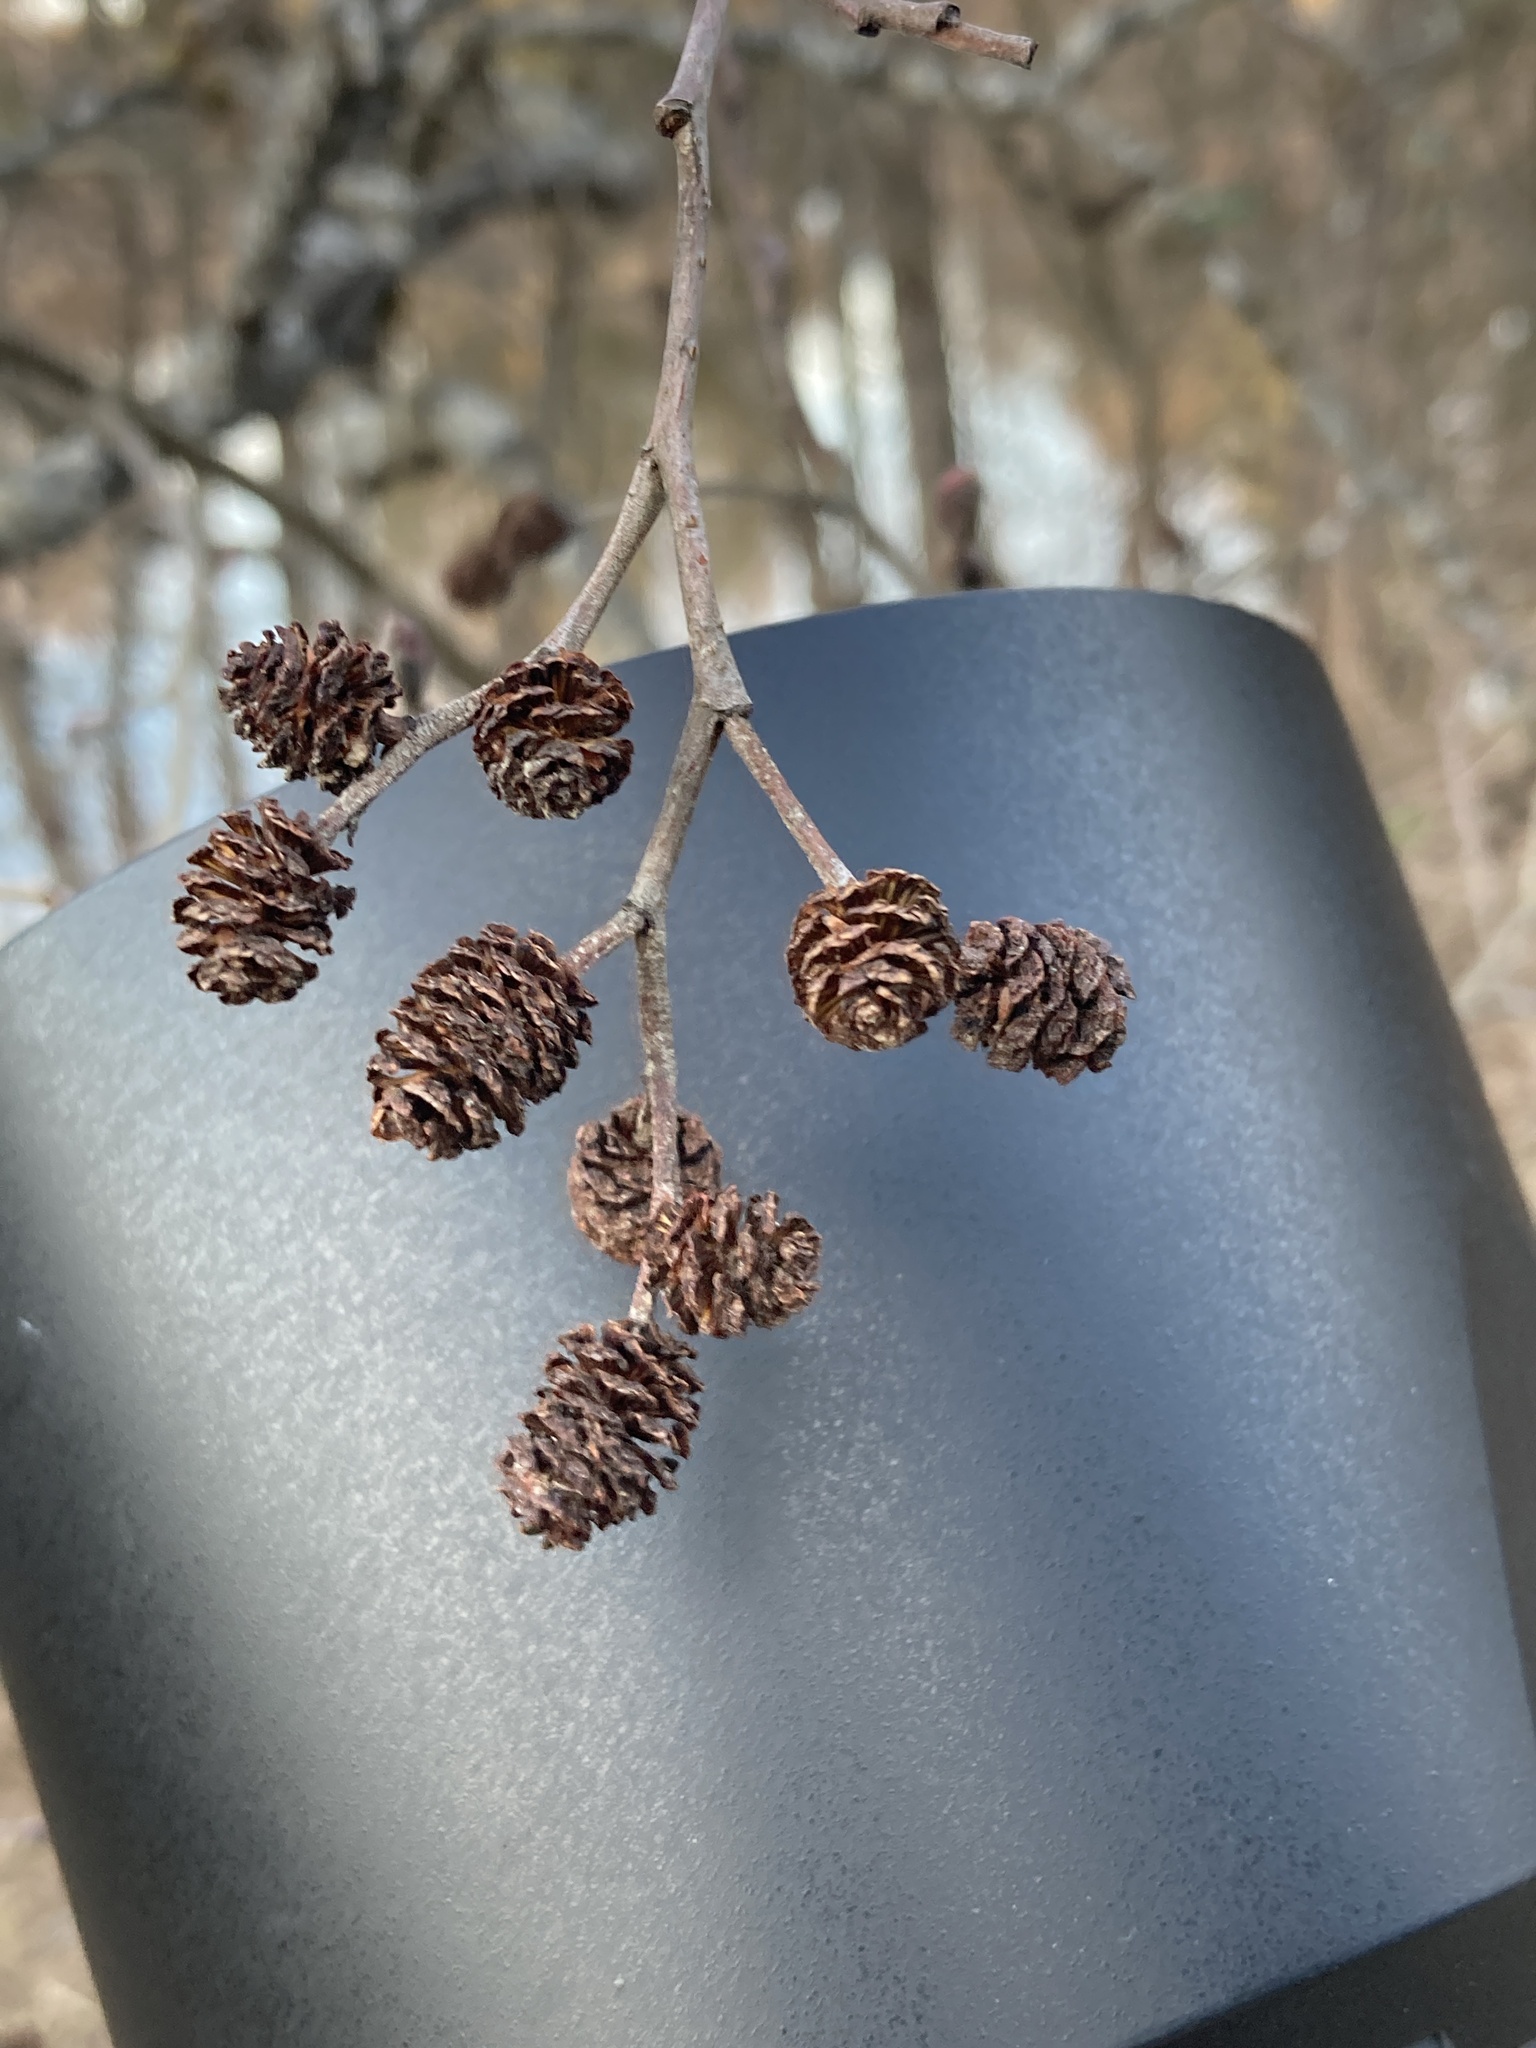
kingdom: Plantae
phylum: Tracheophyta
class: Magnoliopsida
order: Fagales
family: Betulaceae
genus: Alnus
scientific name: Alnus incana
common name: Grey alder
